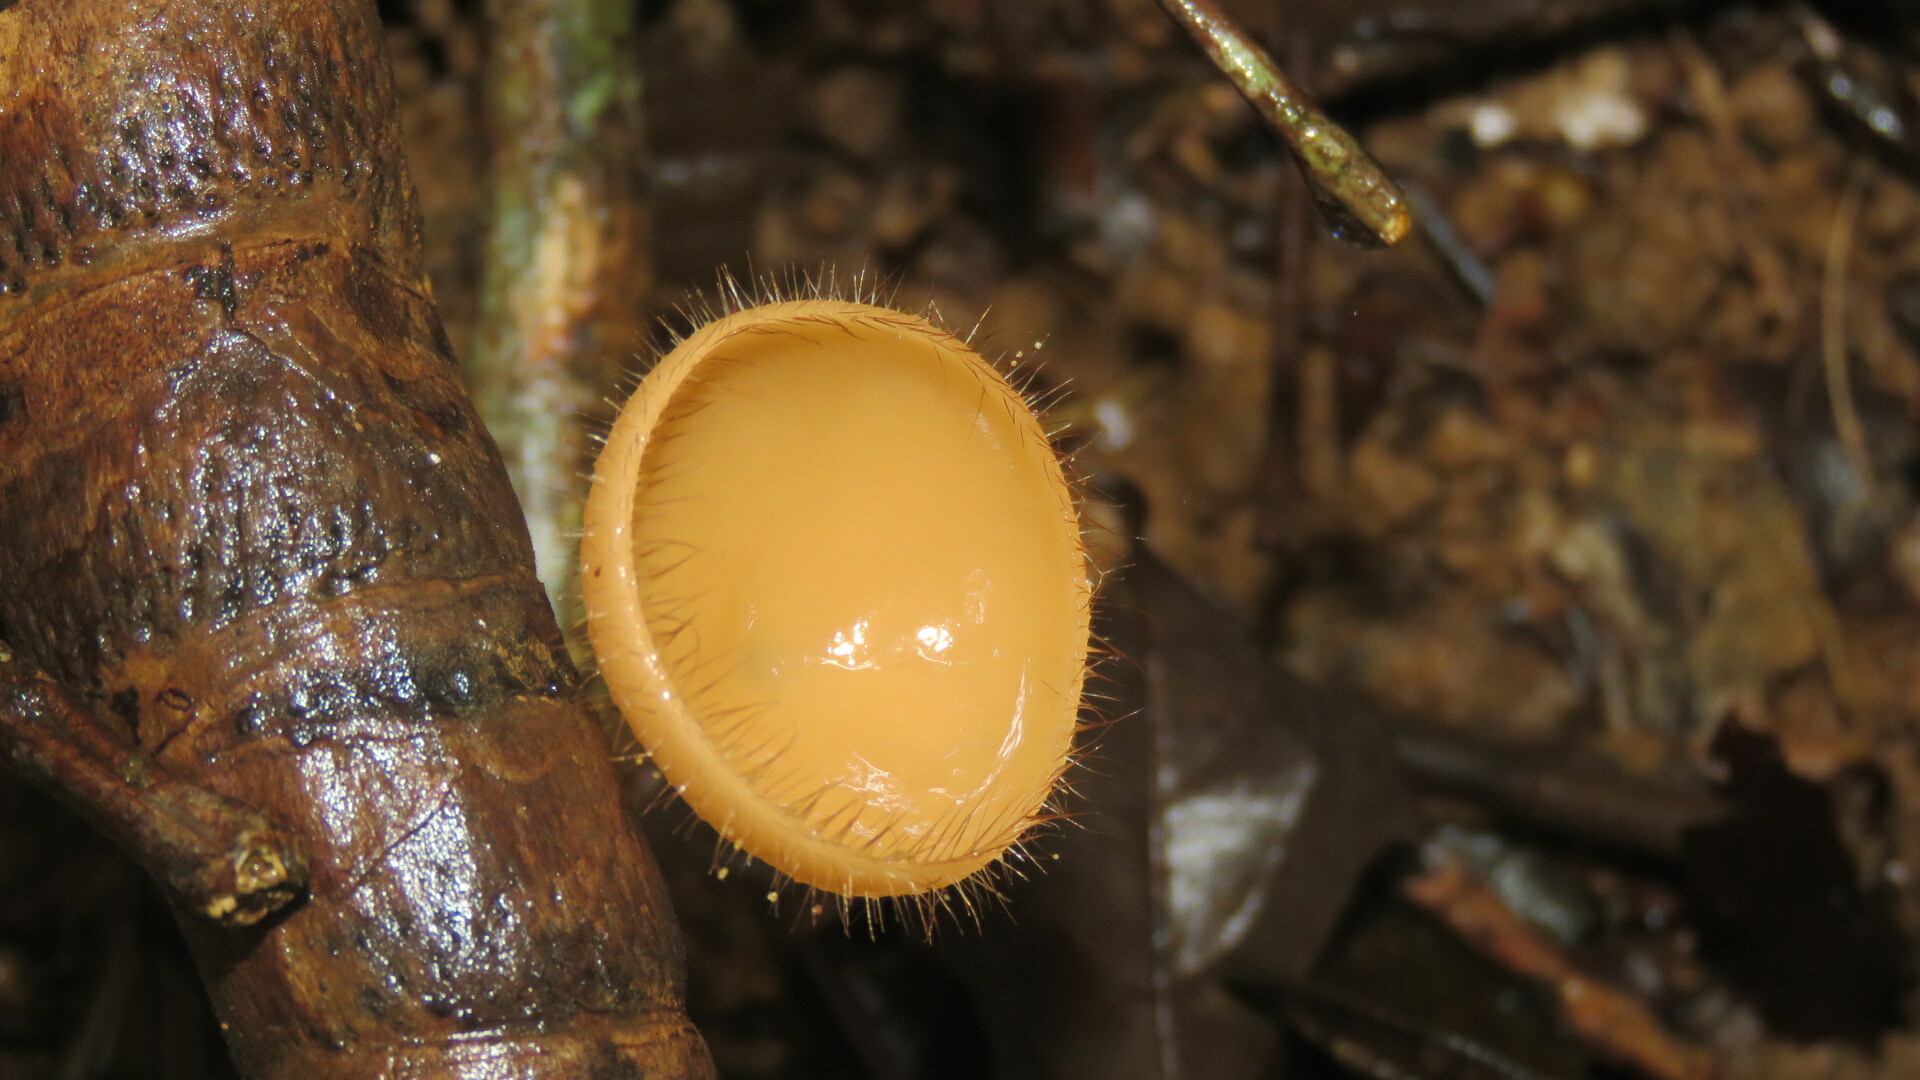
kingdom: Fungi
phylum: Ascomycota
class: Pezizomycetes
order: Pezizales
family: Sarcoscyphaceae
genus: Cookeina
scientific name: Cookeina tricholoma
